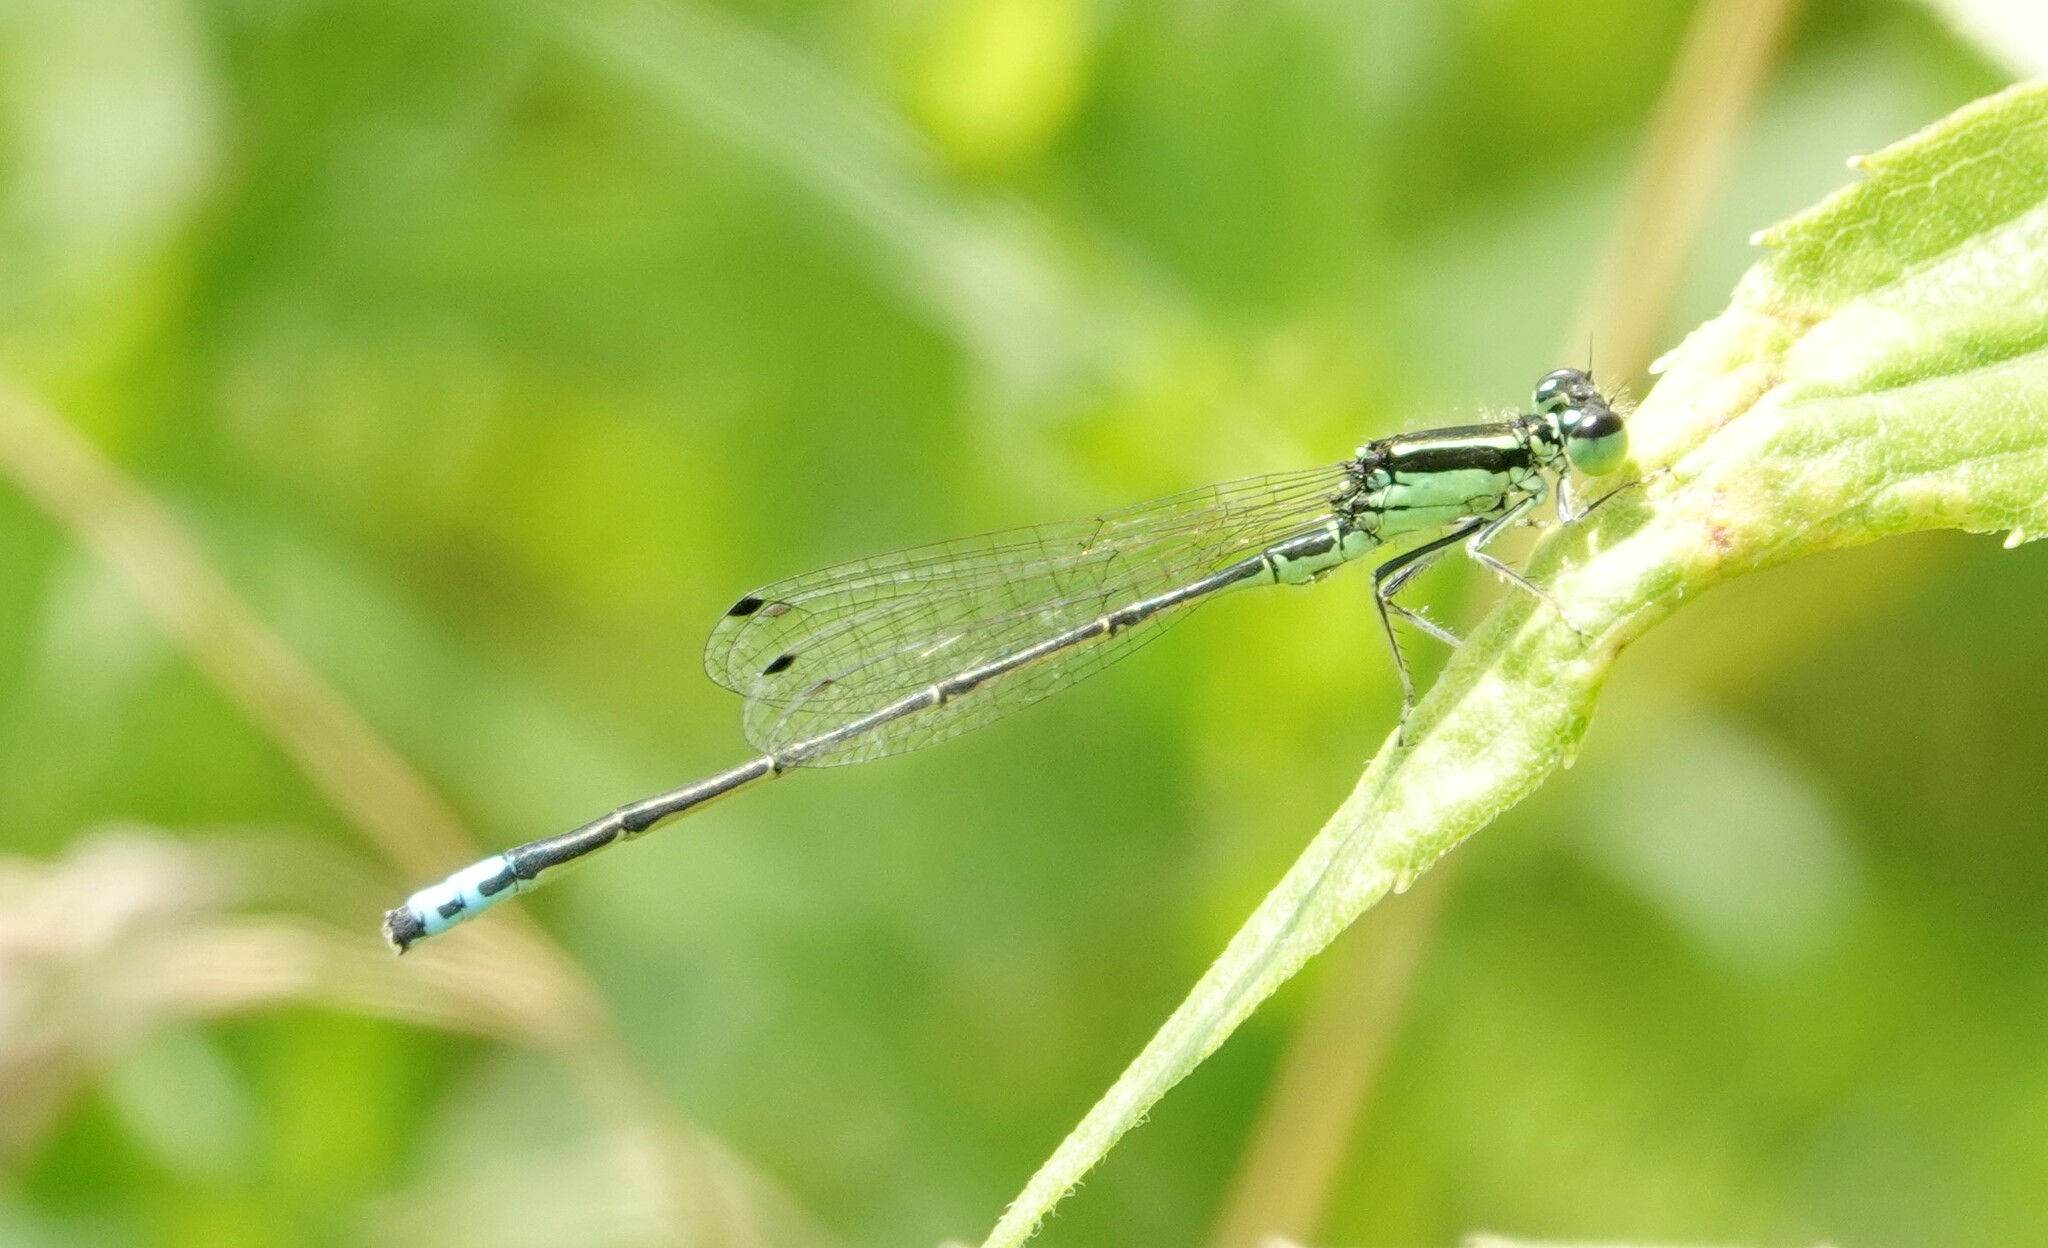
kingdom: Animalia
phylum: Arthropoda
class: Insecta
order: Odonata
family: Coenagrionidae
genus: Ischnura
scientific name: Ischnura verticalis
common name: Eastern forktail
